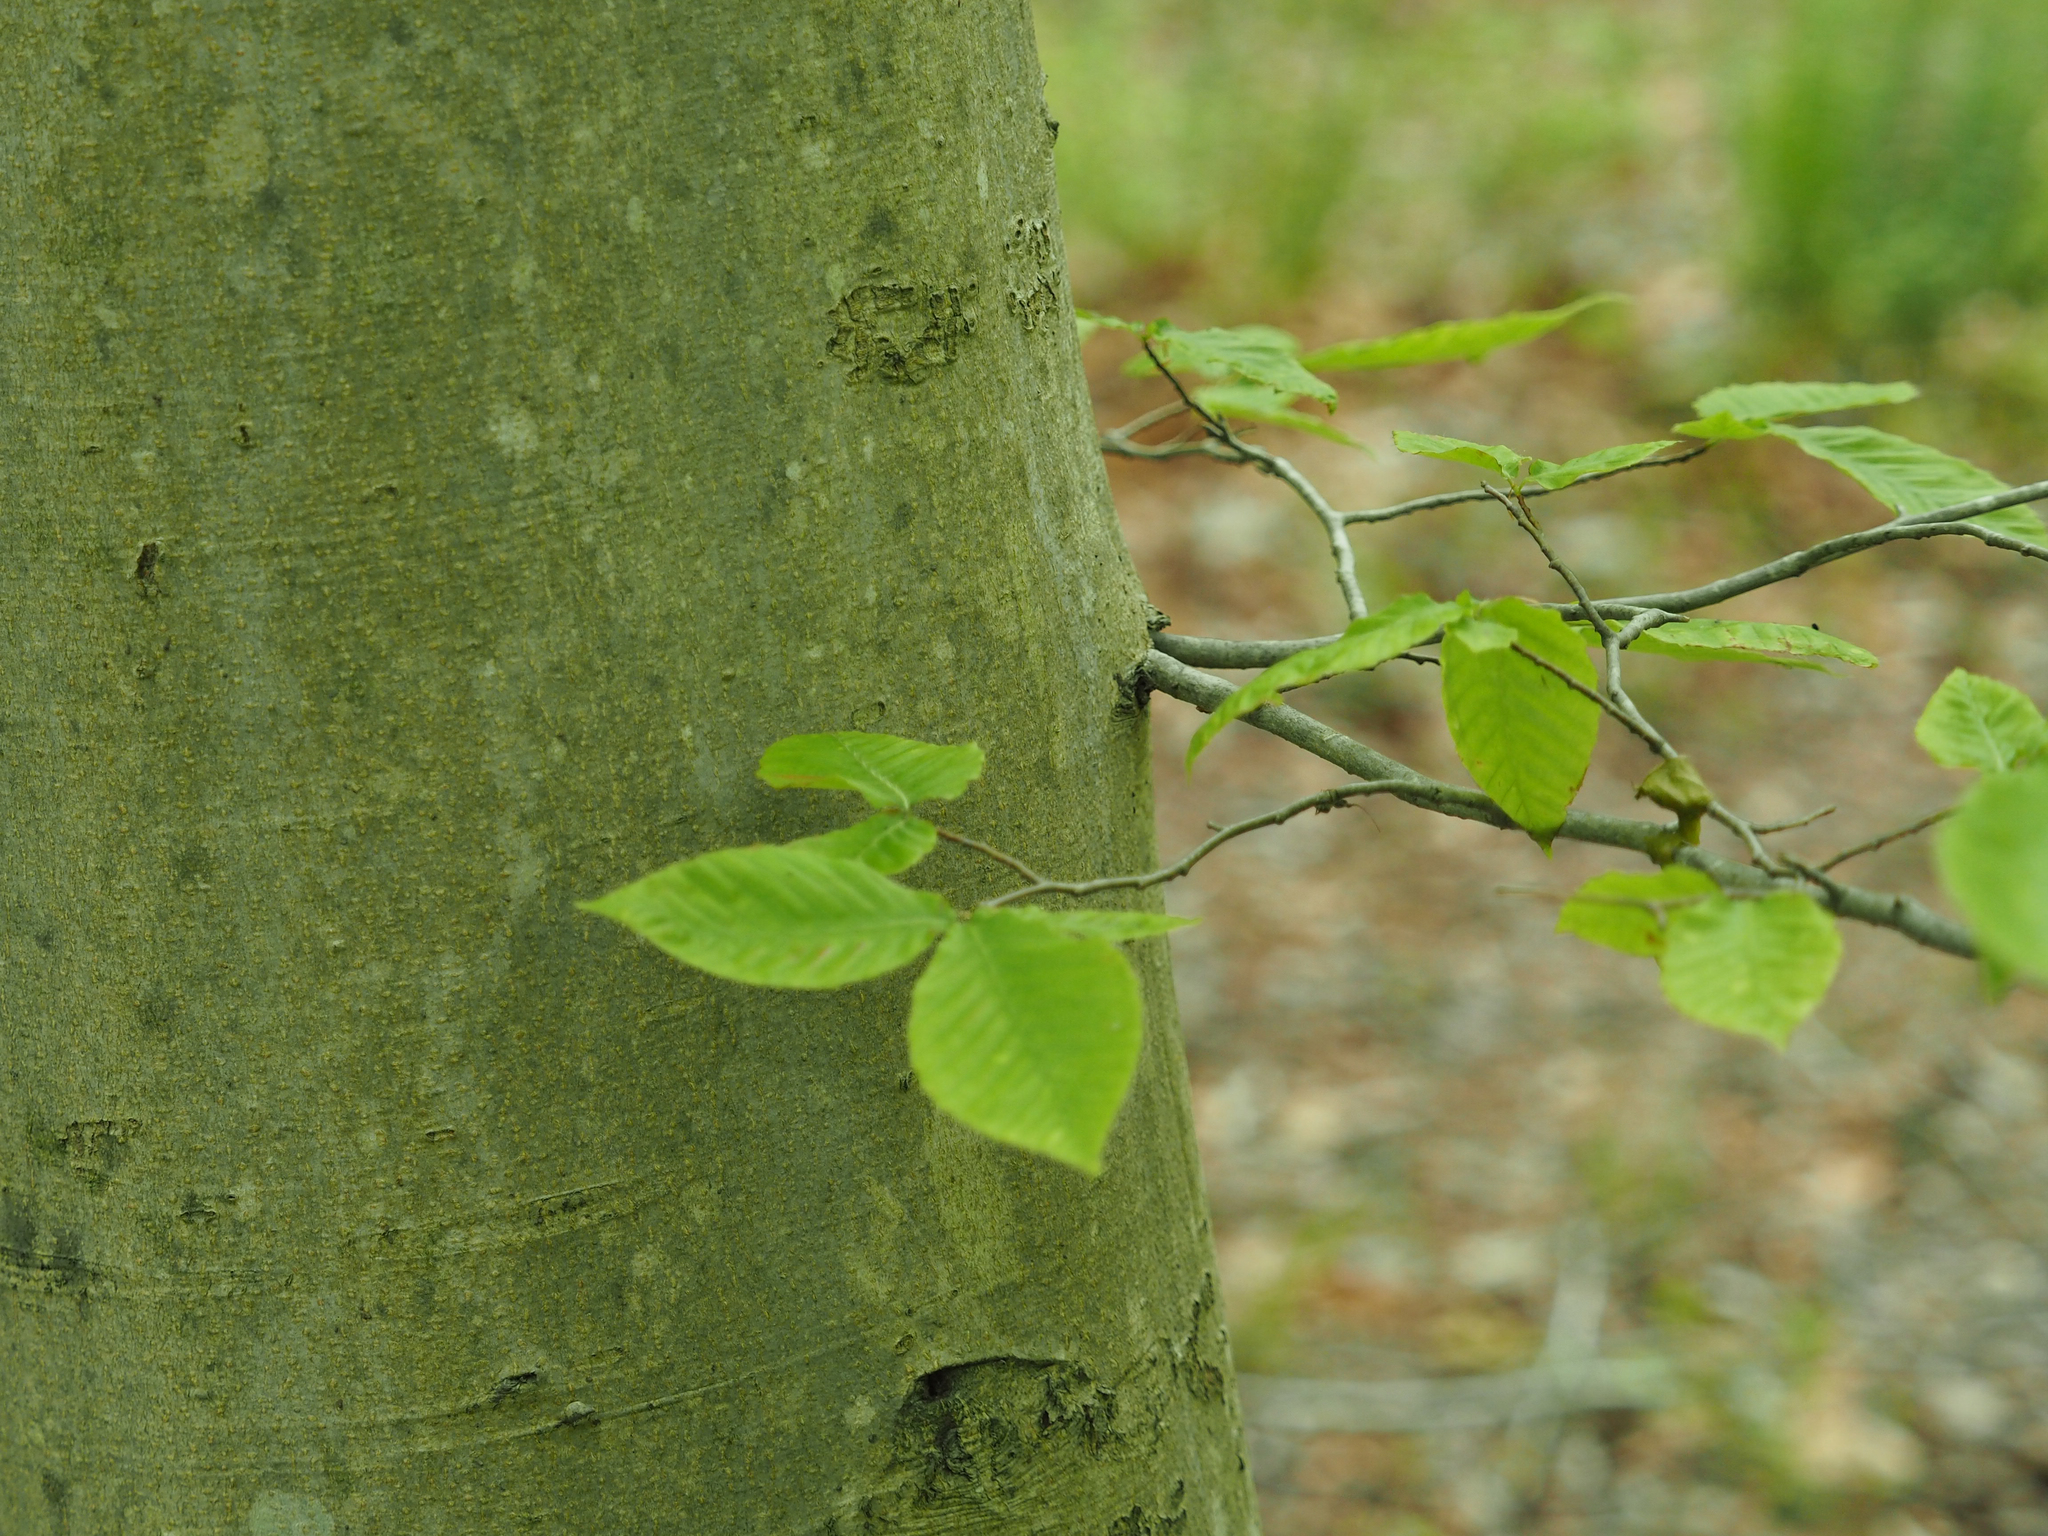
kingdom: Plantae
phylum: Tracheophyta
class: Magnoliopsida
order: Fagales
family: Fagaceae
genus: Fagus
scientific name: Fagus grandifolia
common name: American beech
